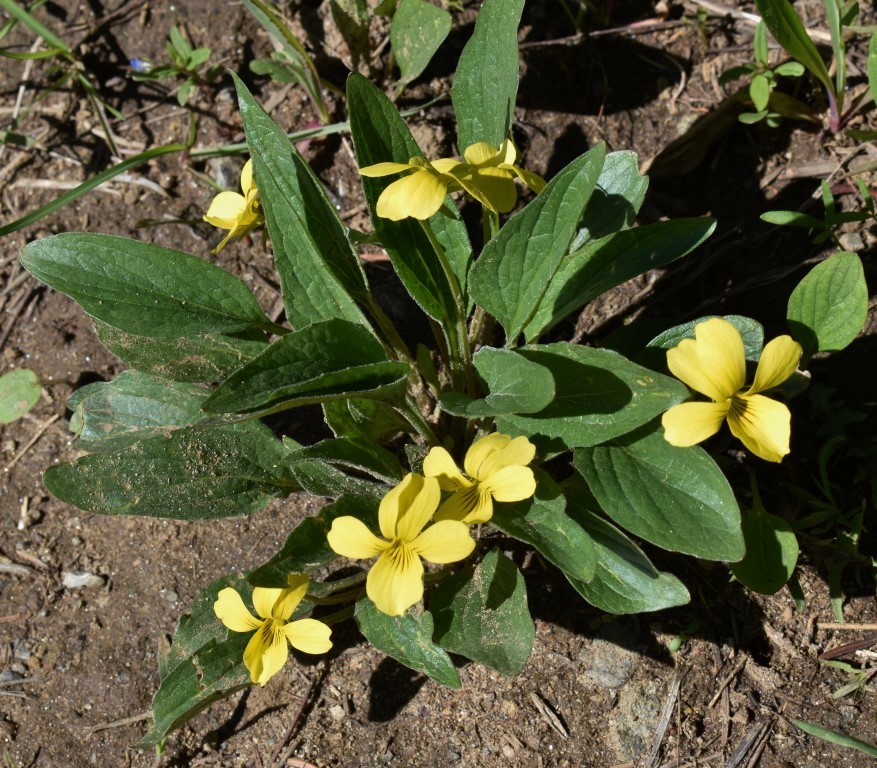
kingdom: Plantae
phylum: Tracheophyta
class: Magnoliopsida
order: Malpighiales
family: Violaceae
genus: Viola
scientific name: Viola praemorsa
